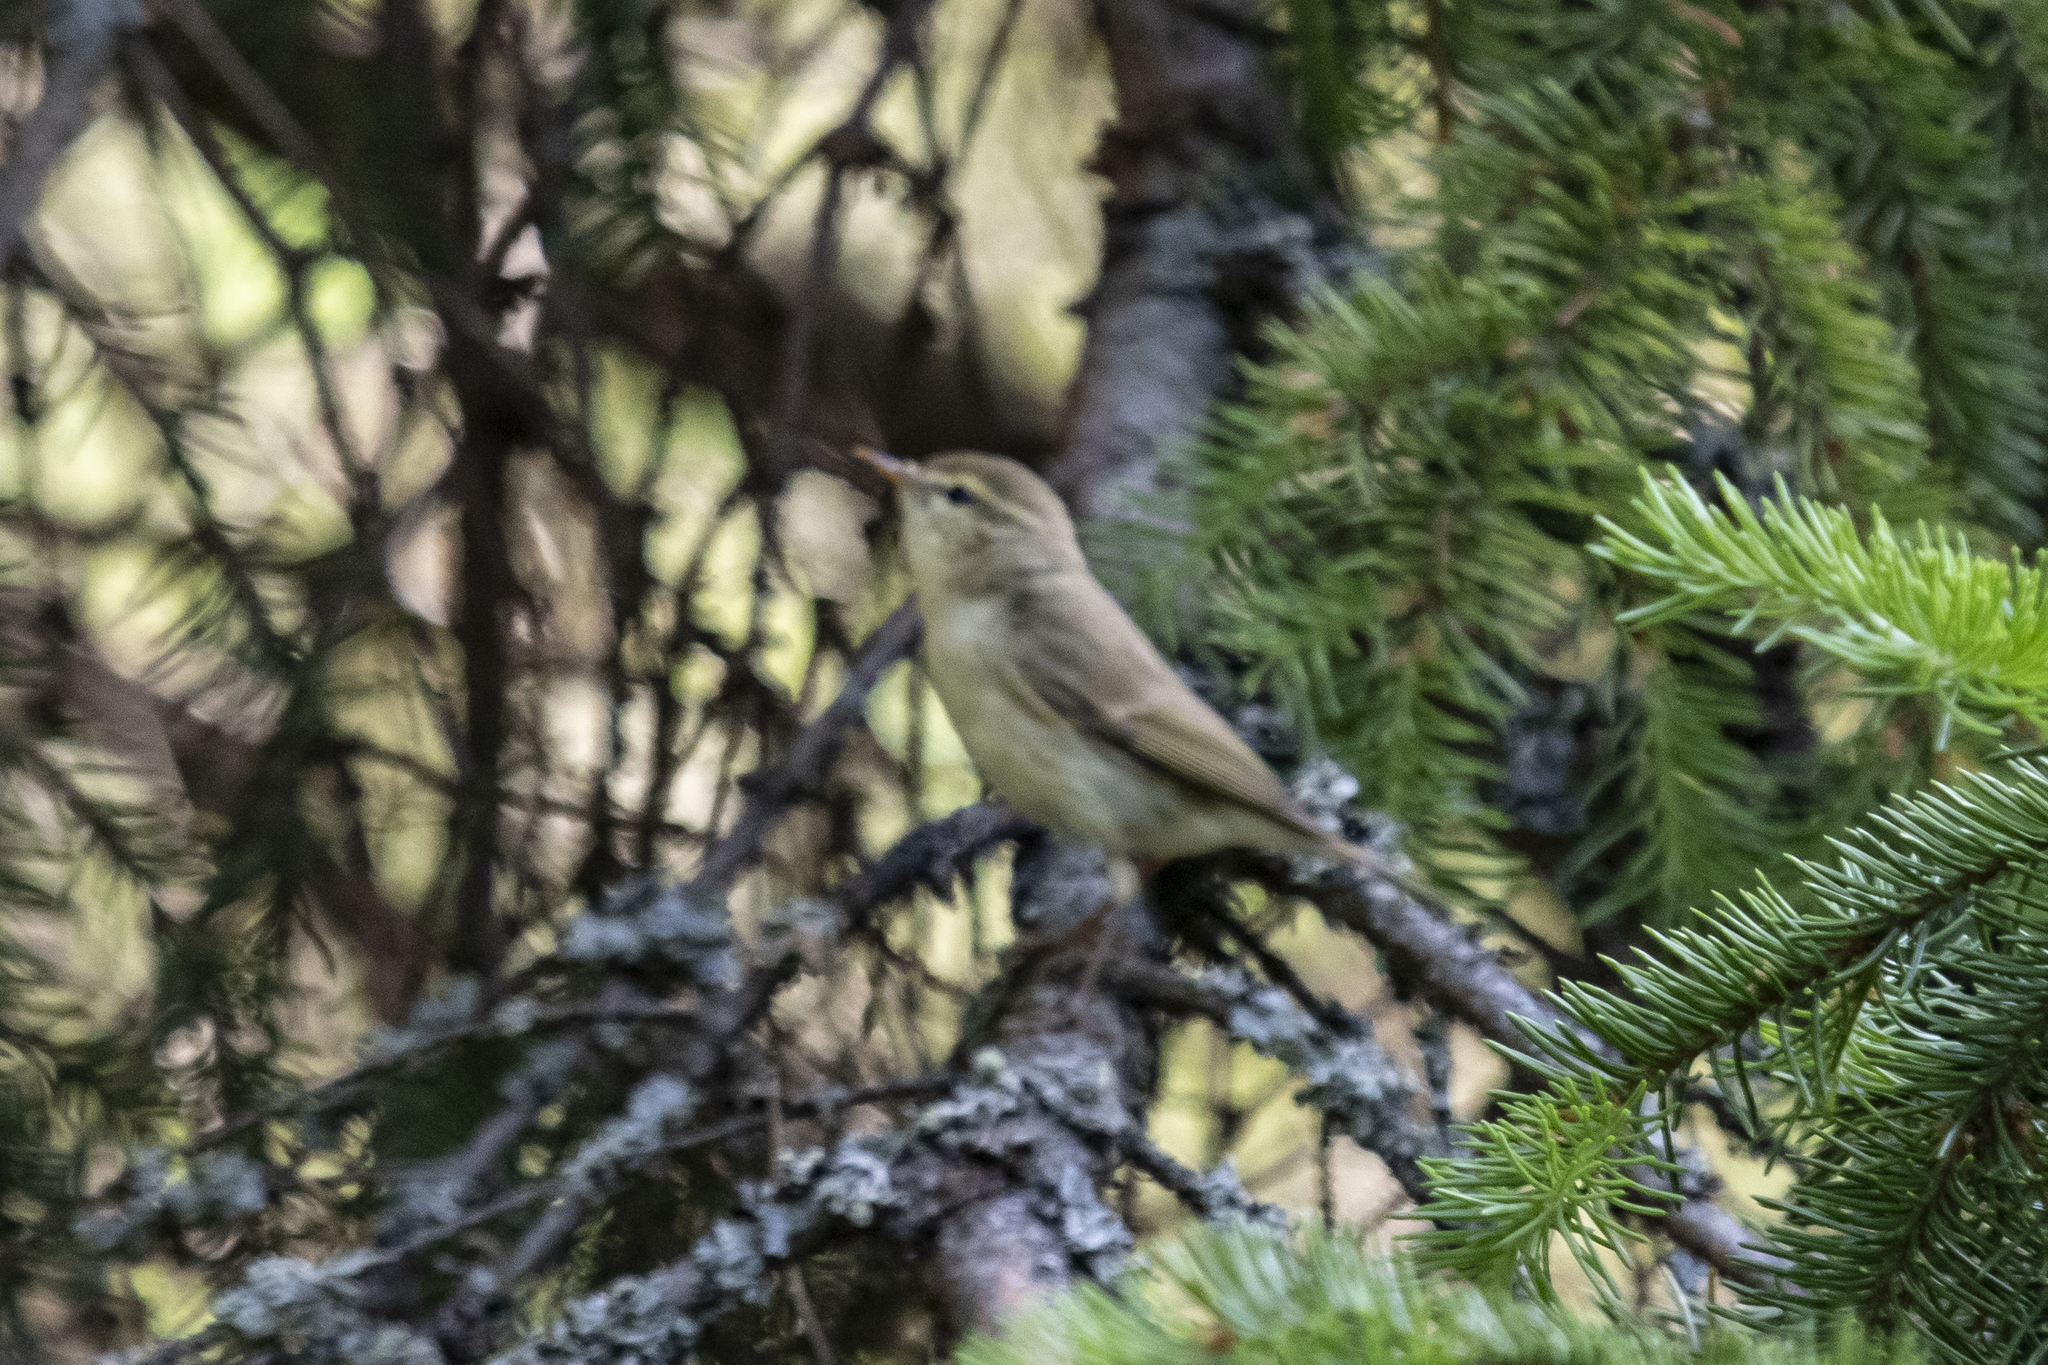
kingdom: Animalia
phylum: Chordata
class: Aves
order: Passeriformes
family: Phylloscopidae
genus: Phylloscopus
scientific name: Phylloscopus trochiloides
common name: Greenish warbler
